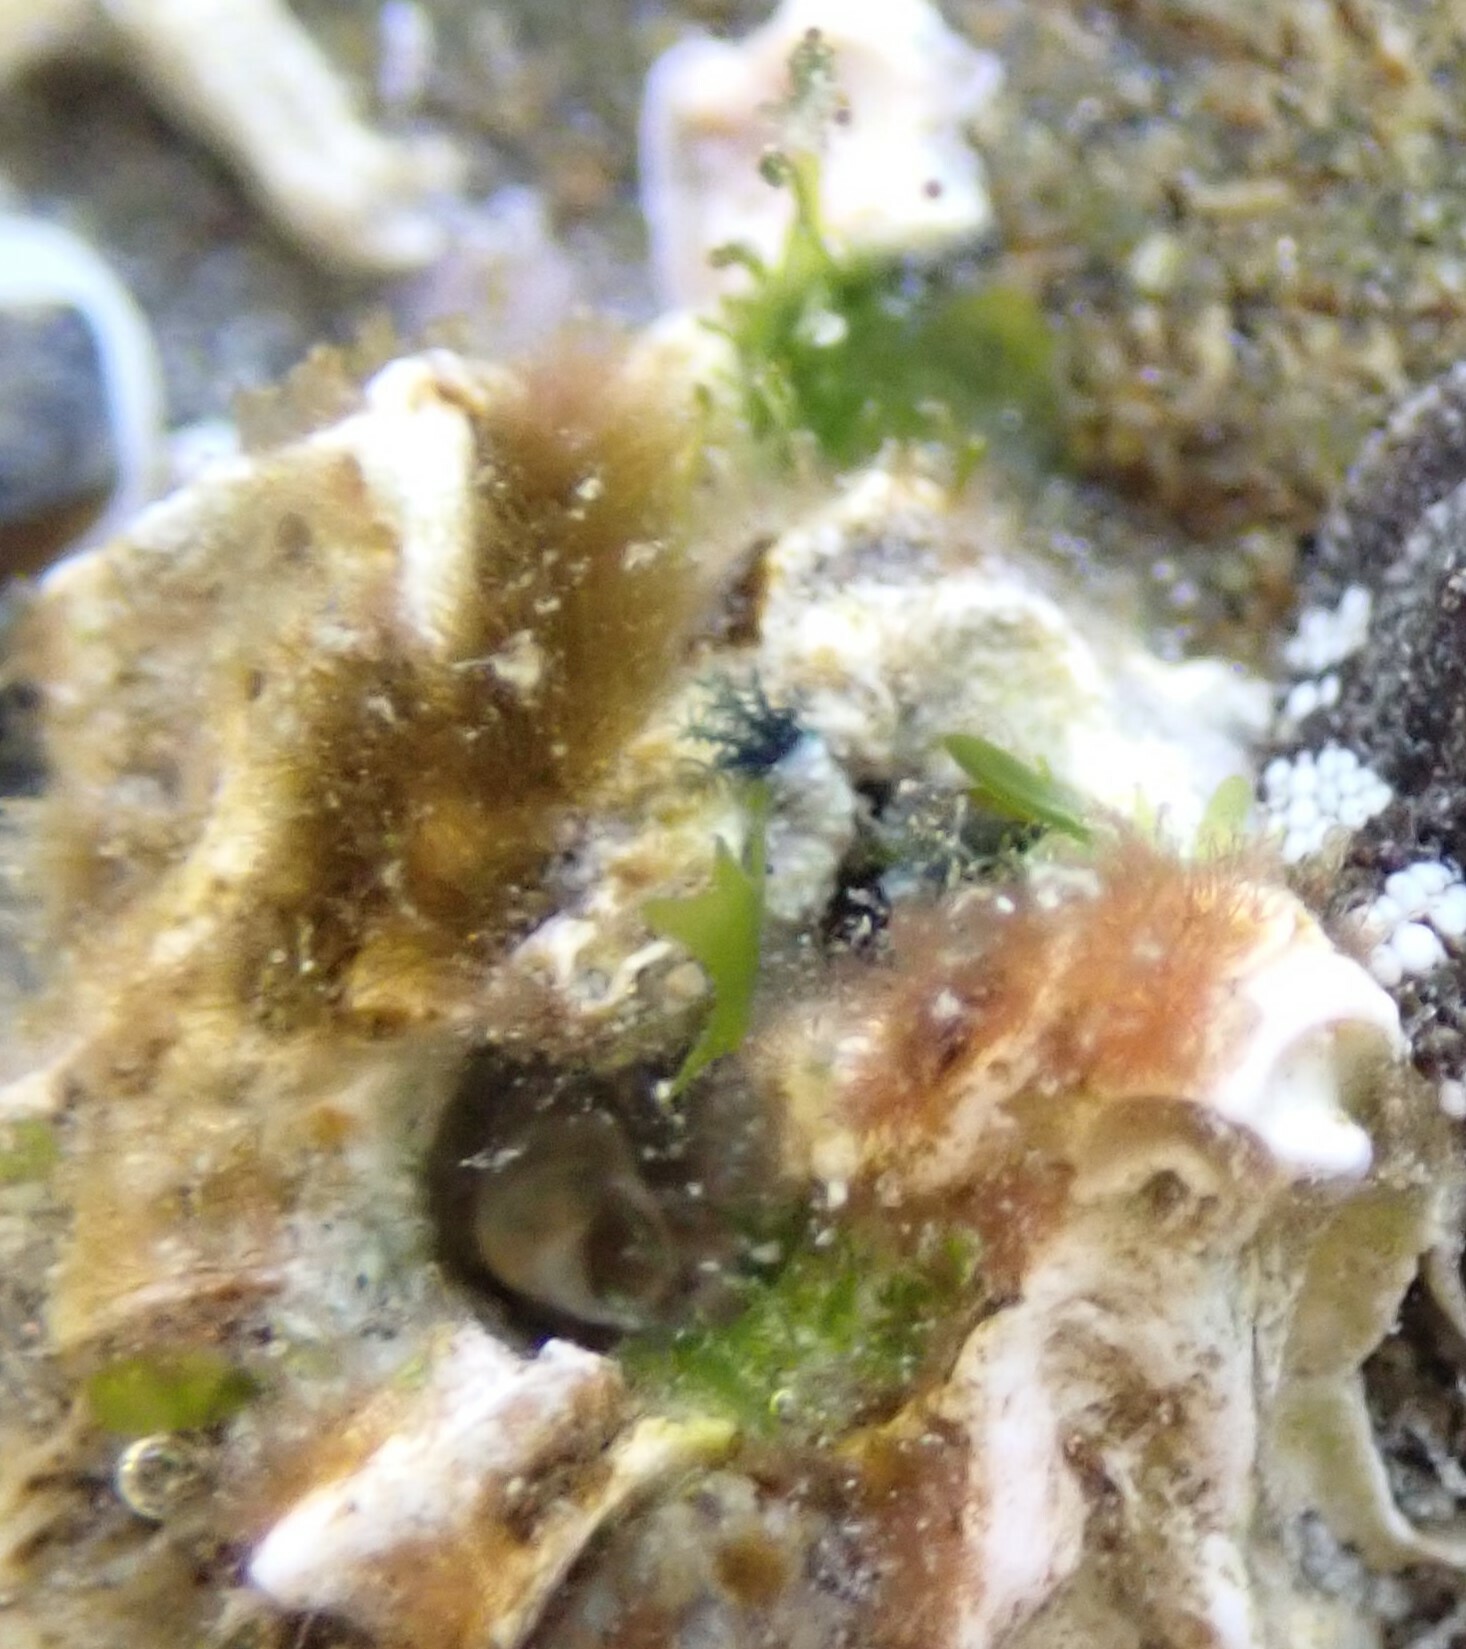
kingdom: Animalia
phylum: Annelida
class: Polychaeta
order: Sabellida
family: Serpulidae
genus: Spirobranchus
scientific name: Spirobranchus cariniferus
